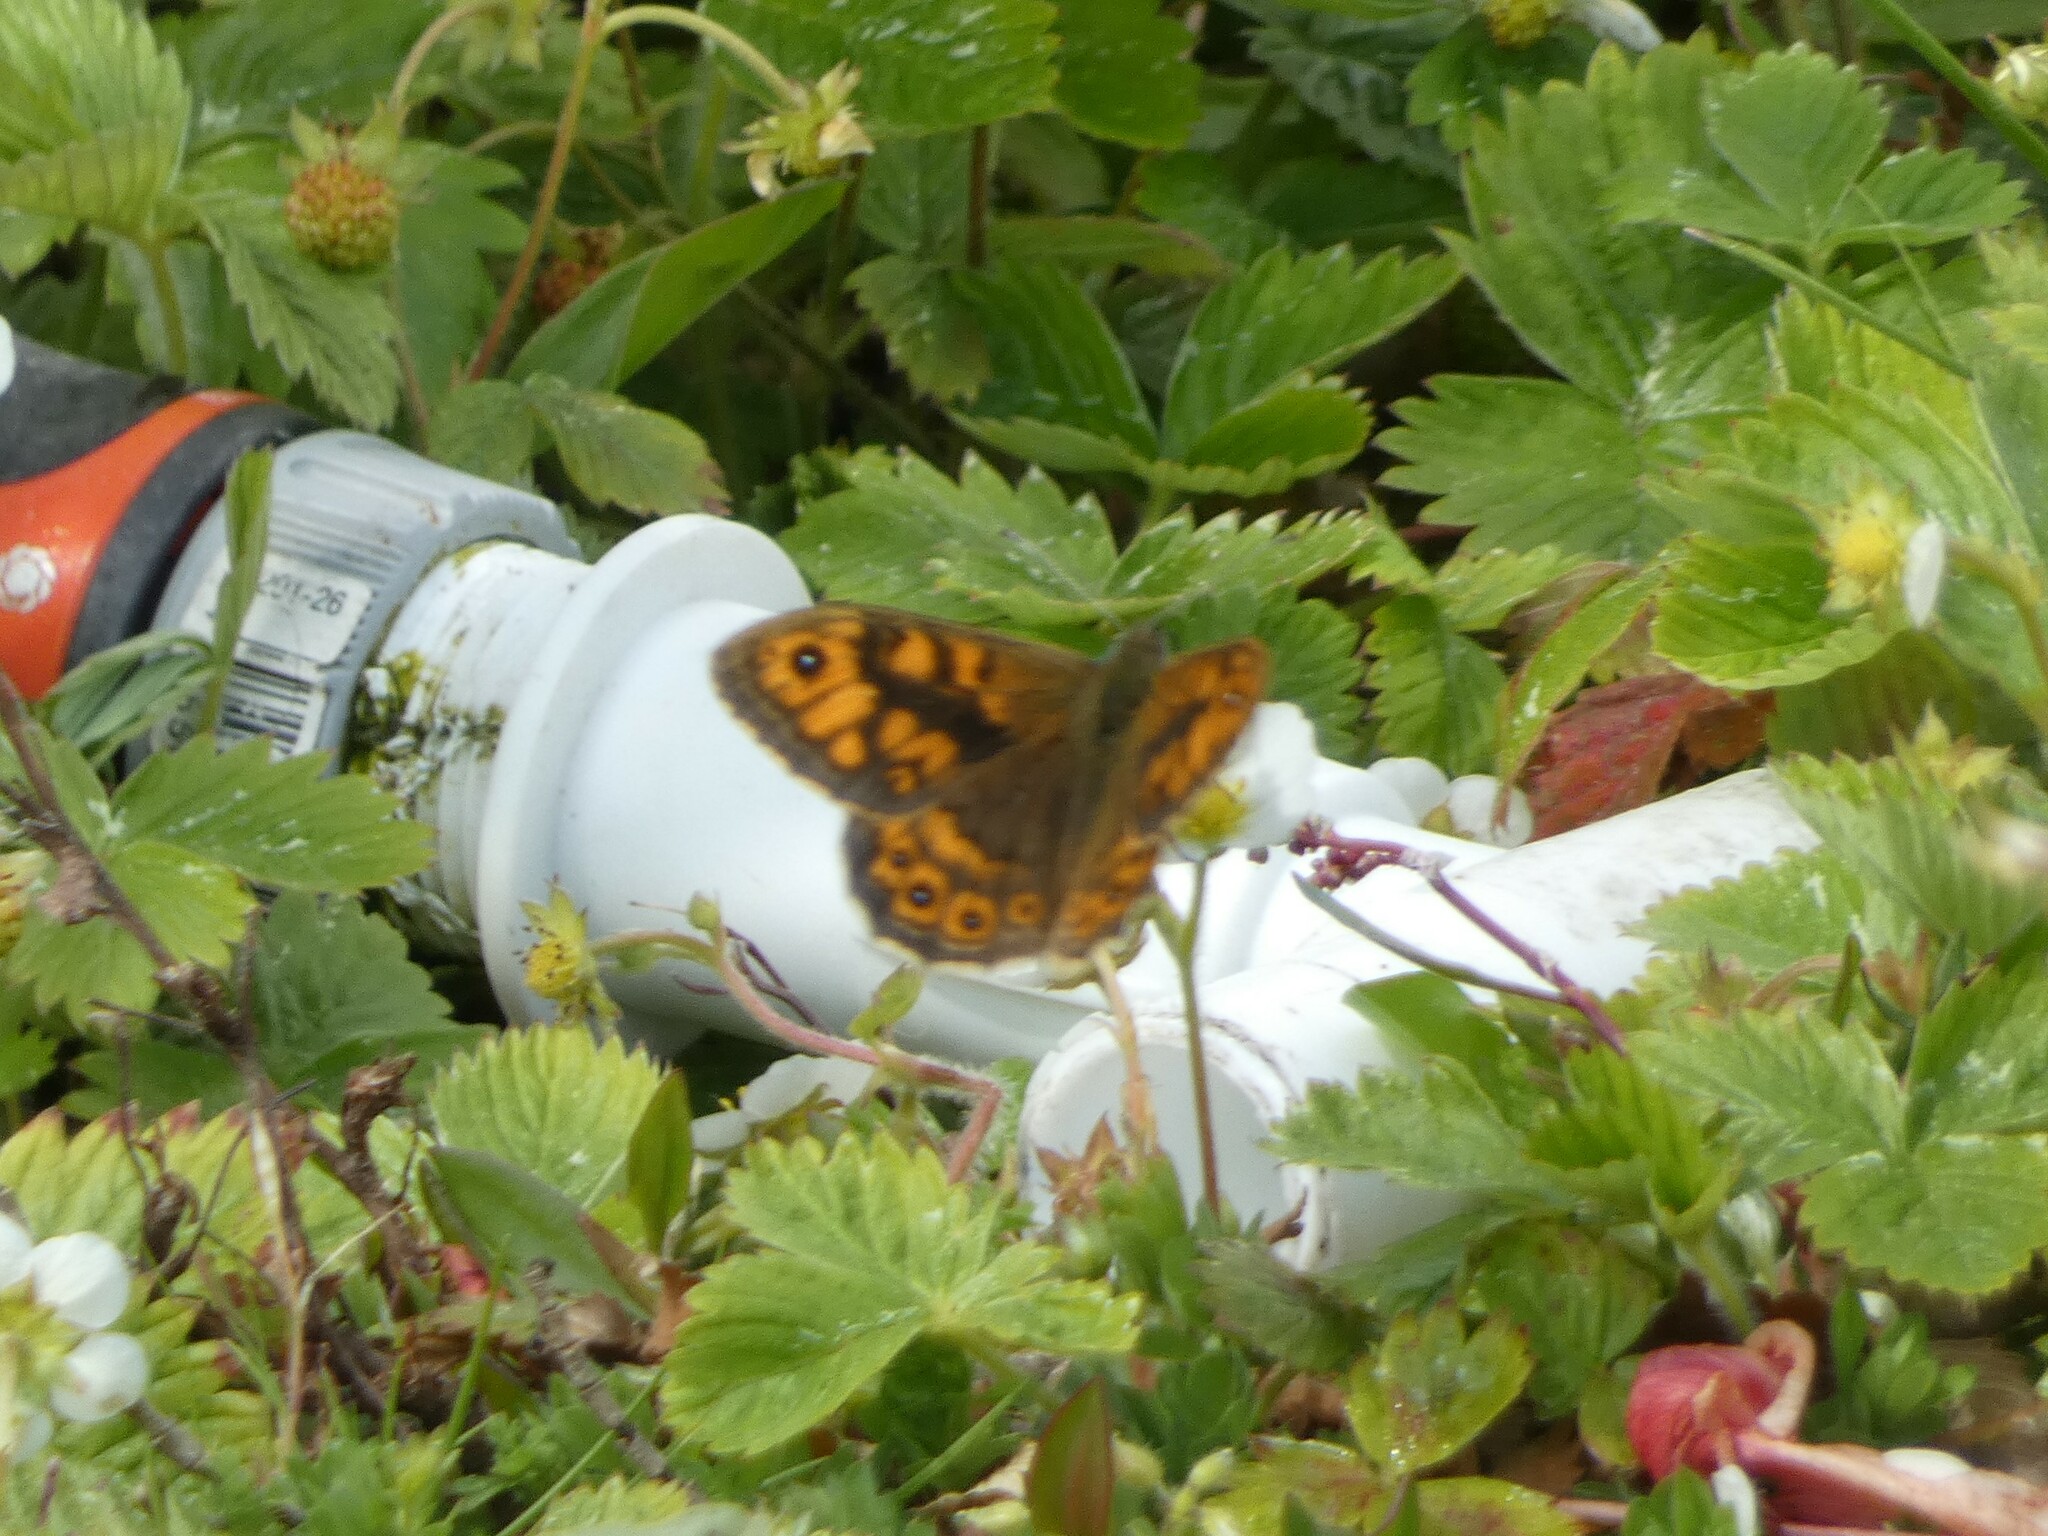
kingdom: Animalia
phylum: Arthropoda
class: Insecta
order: Lepidoptera
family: Nymphalidae
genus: Pararge
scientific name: Pararge Lasiommata megera
